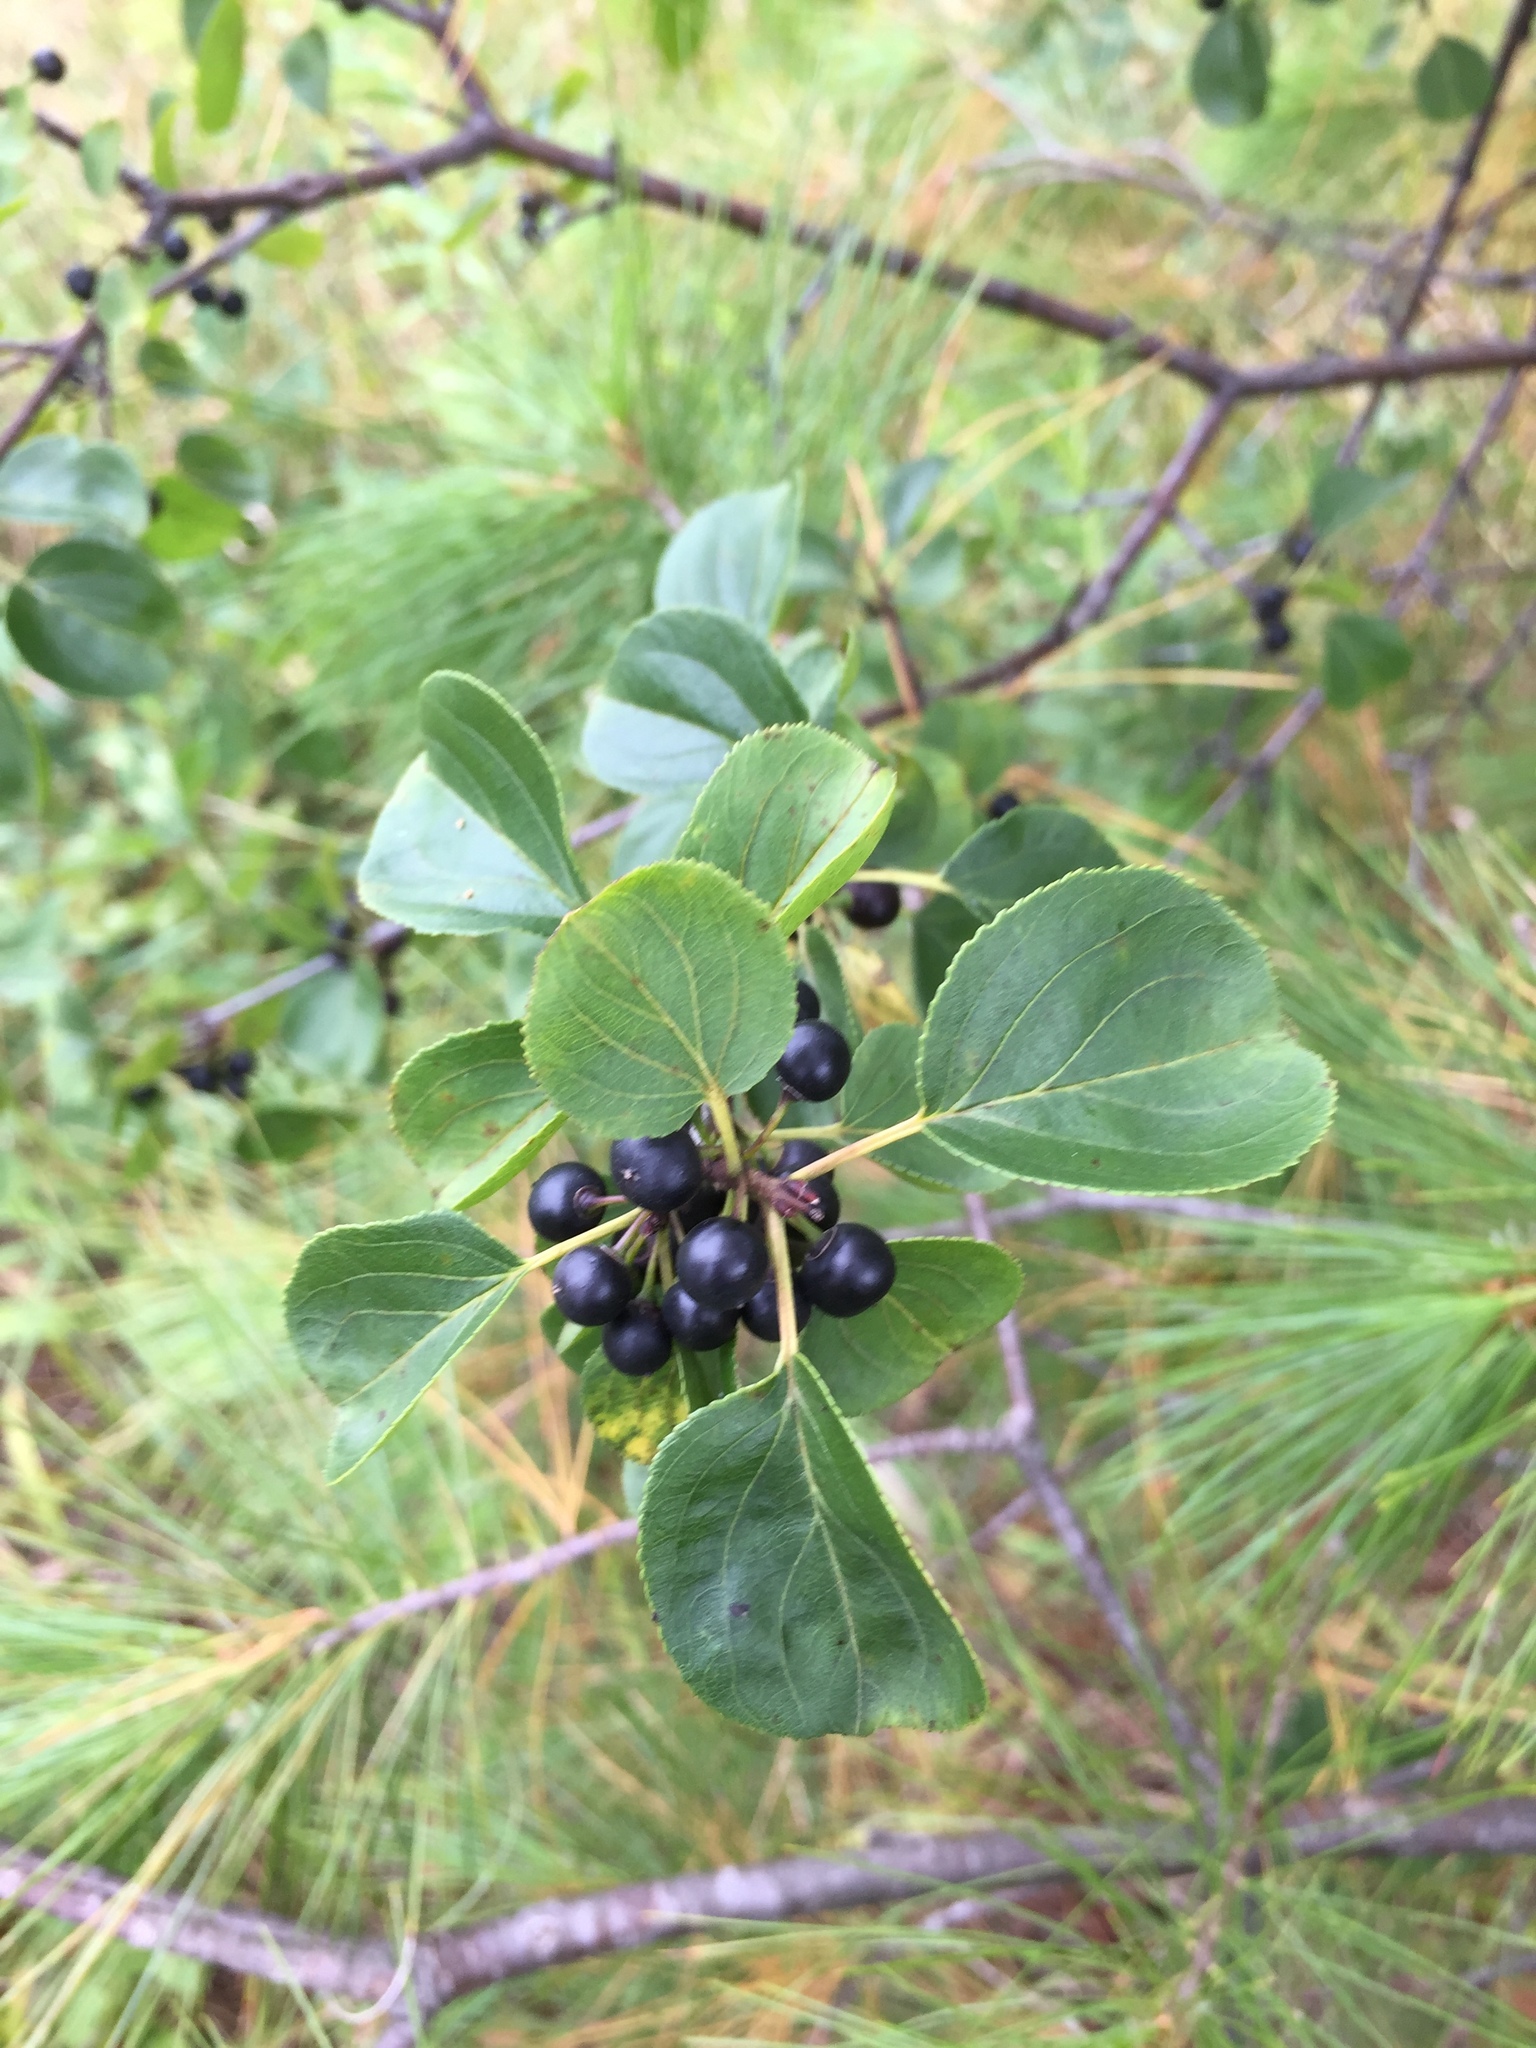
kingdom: Plantae
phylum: Tracheophyta
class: Magnoliopsida
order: Rosales
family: Rhamnaceae
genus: Rhamnus
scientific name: Rhamnus cathartica
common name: Common buckthorn
